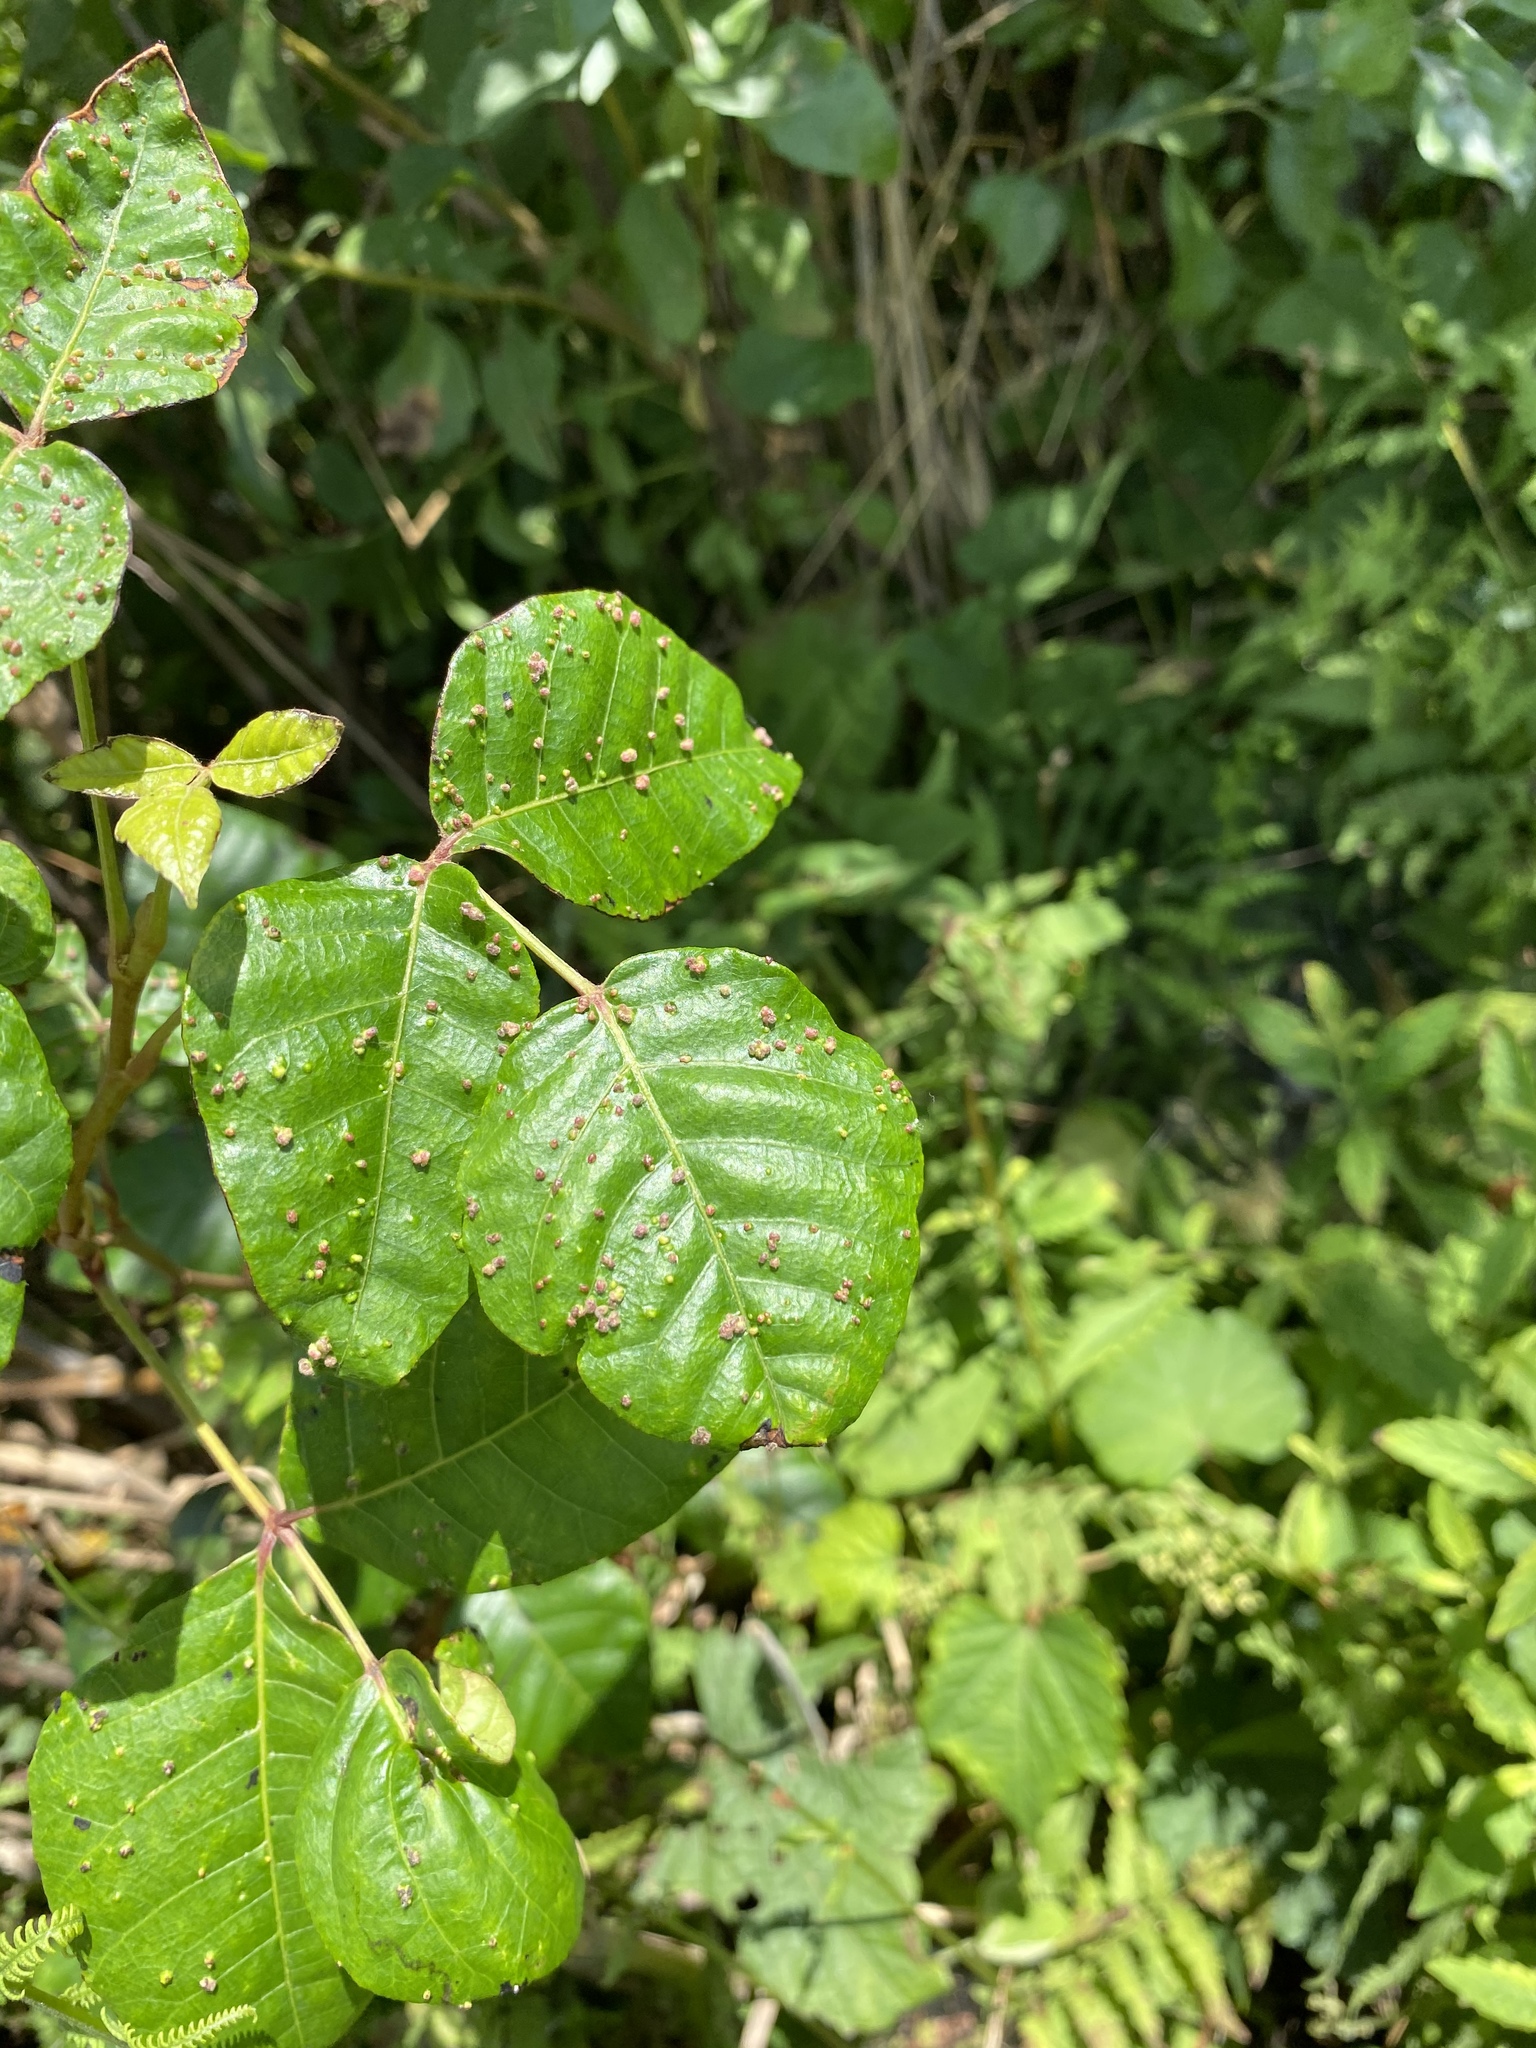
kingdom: Animalia
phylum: Arthropoda
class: Arachnida
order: Trombidiformes
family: Eriophyidae
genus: Aculops
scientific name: Aculops
